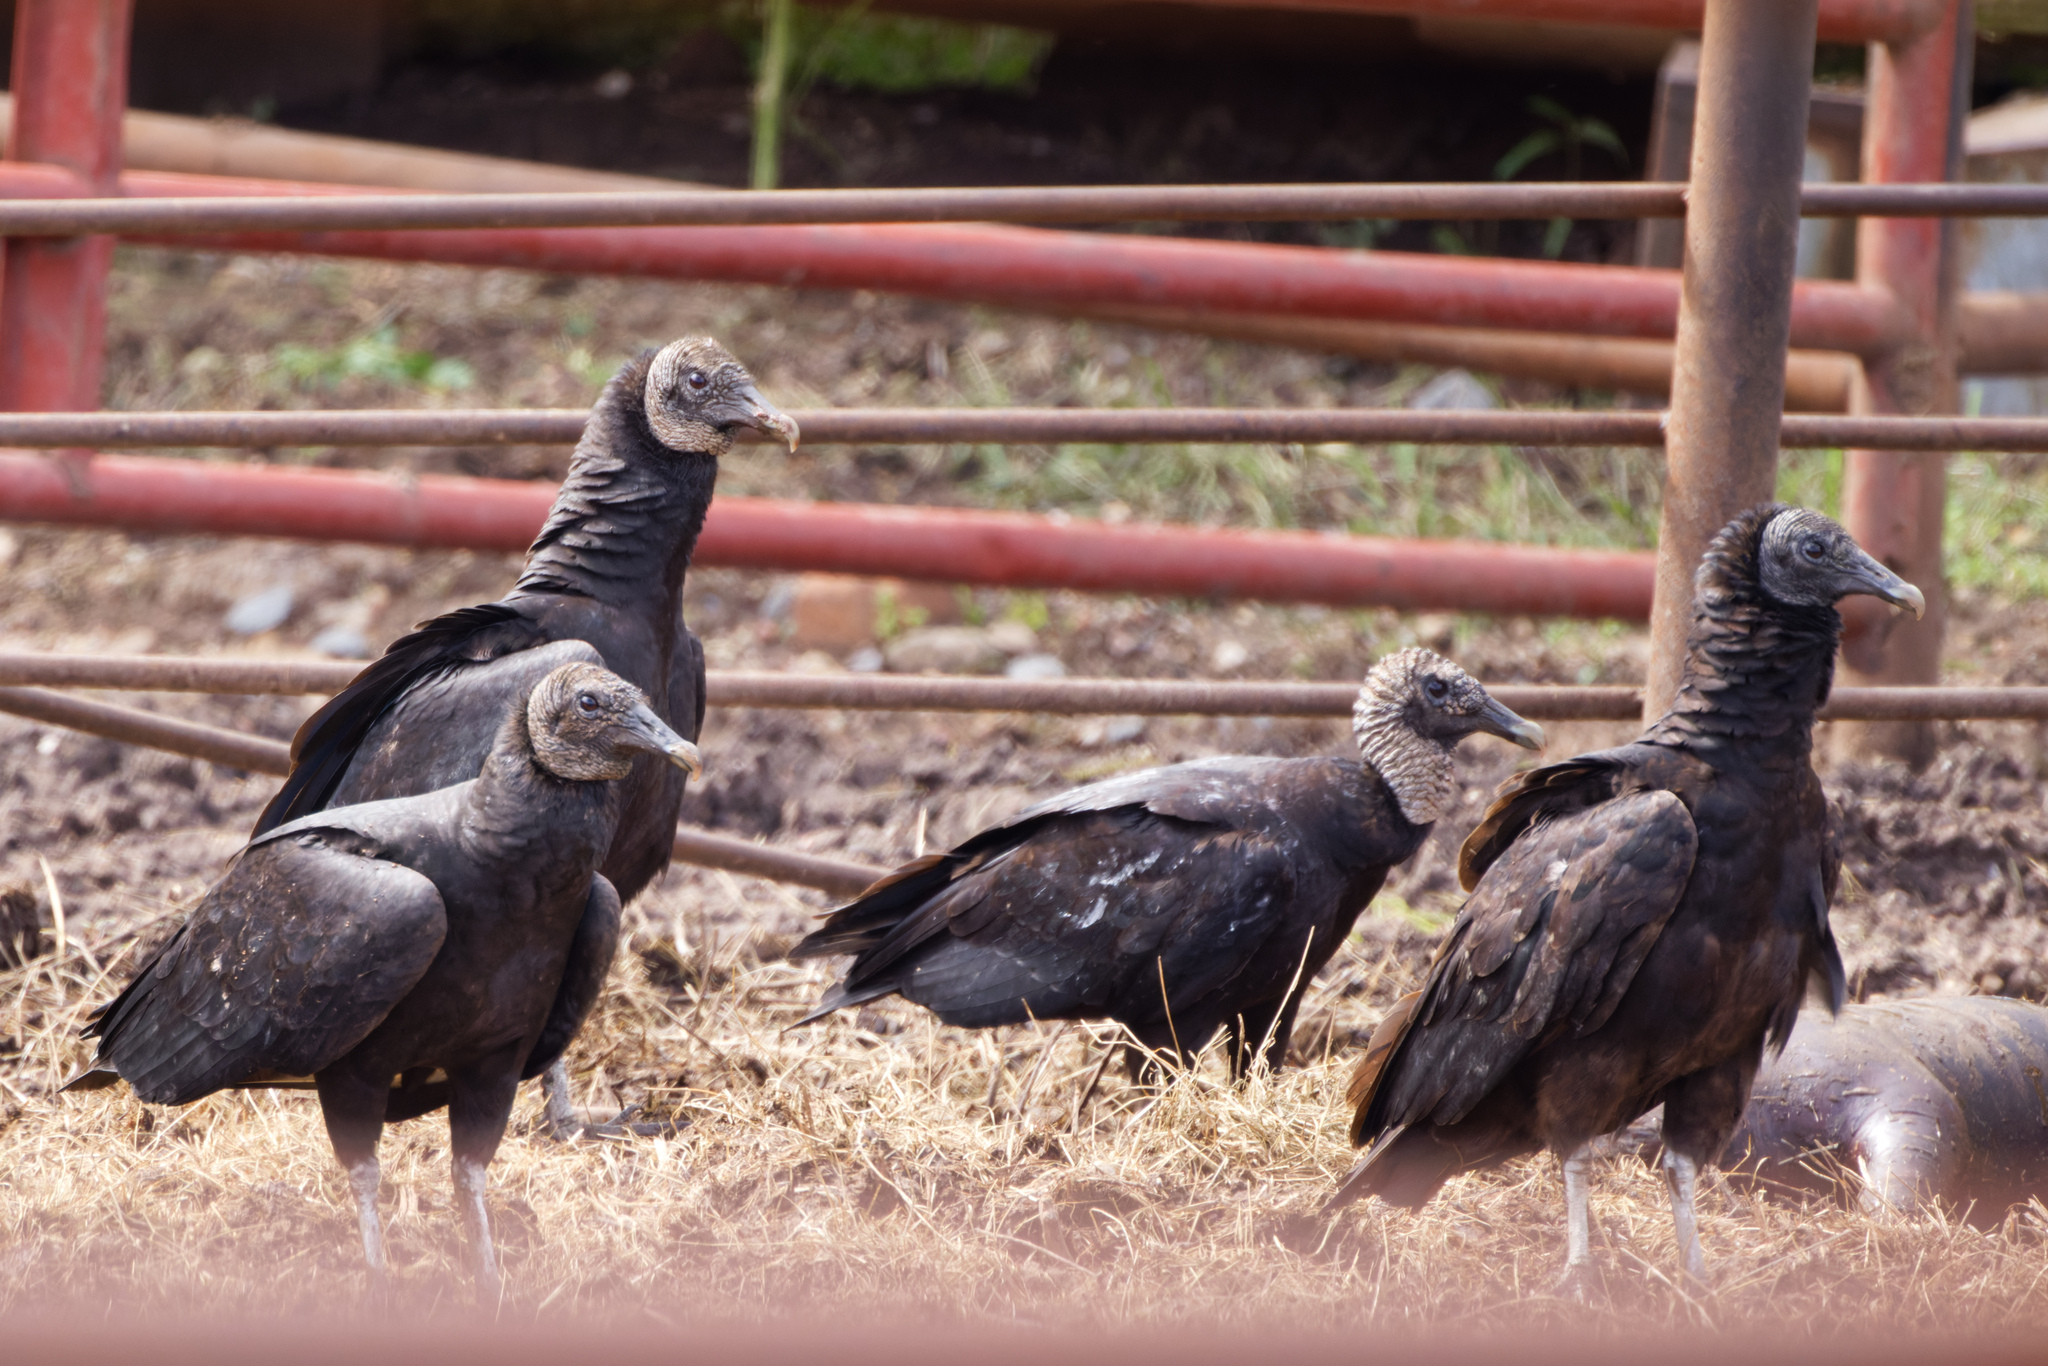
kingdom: Animalia
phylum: Chordata
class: Aves
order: Accipitriformes
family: Cathartidae
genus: Coragyps
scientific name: Coragyps atratus
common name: Black vulture
